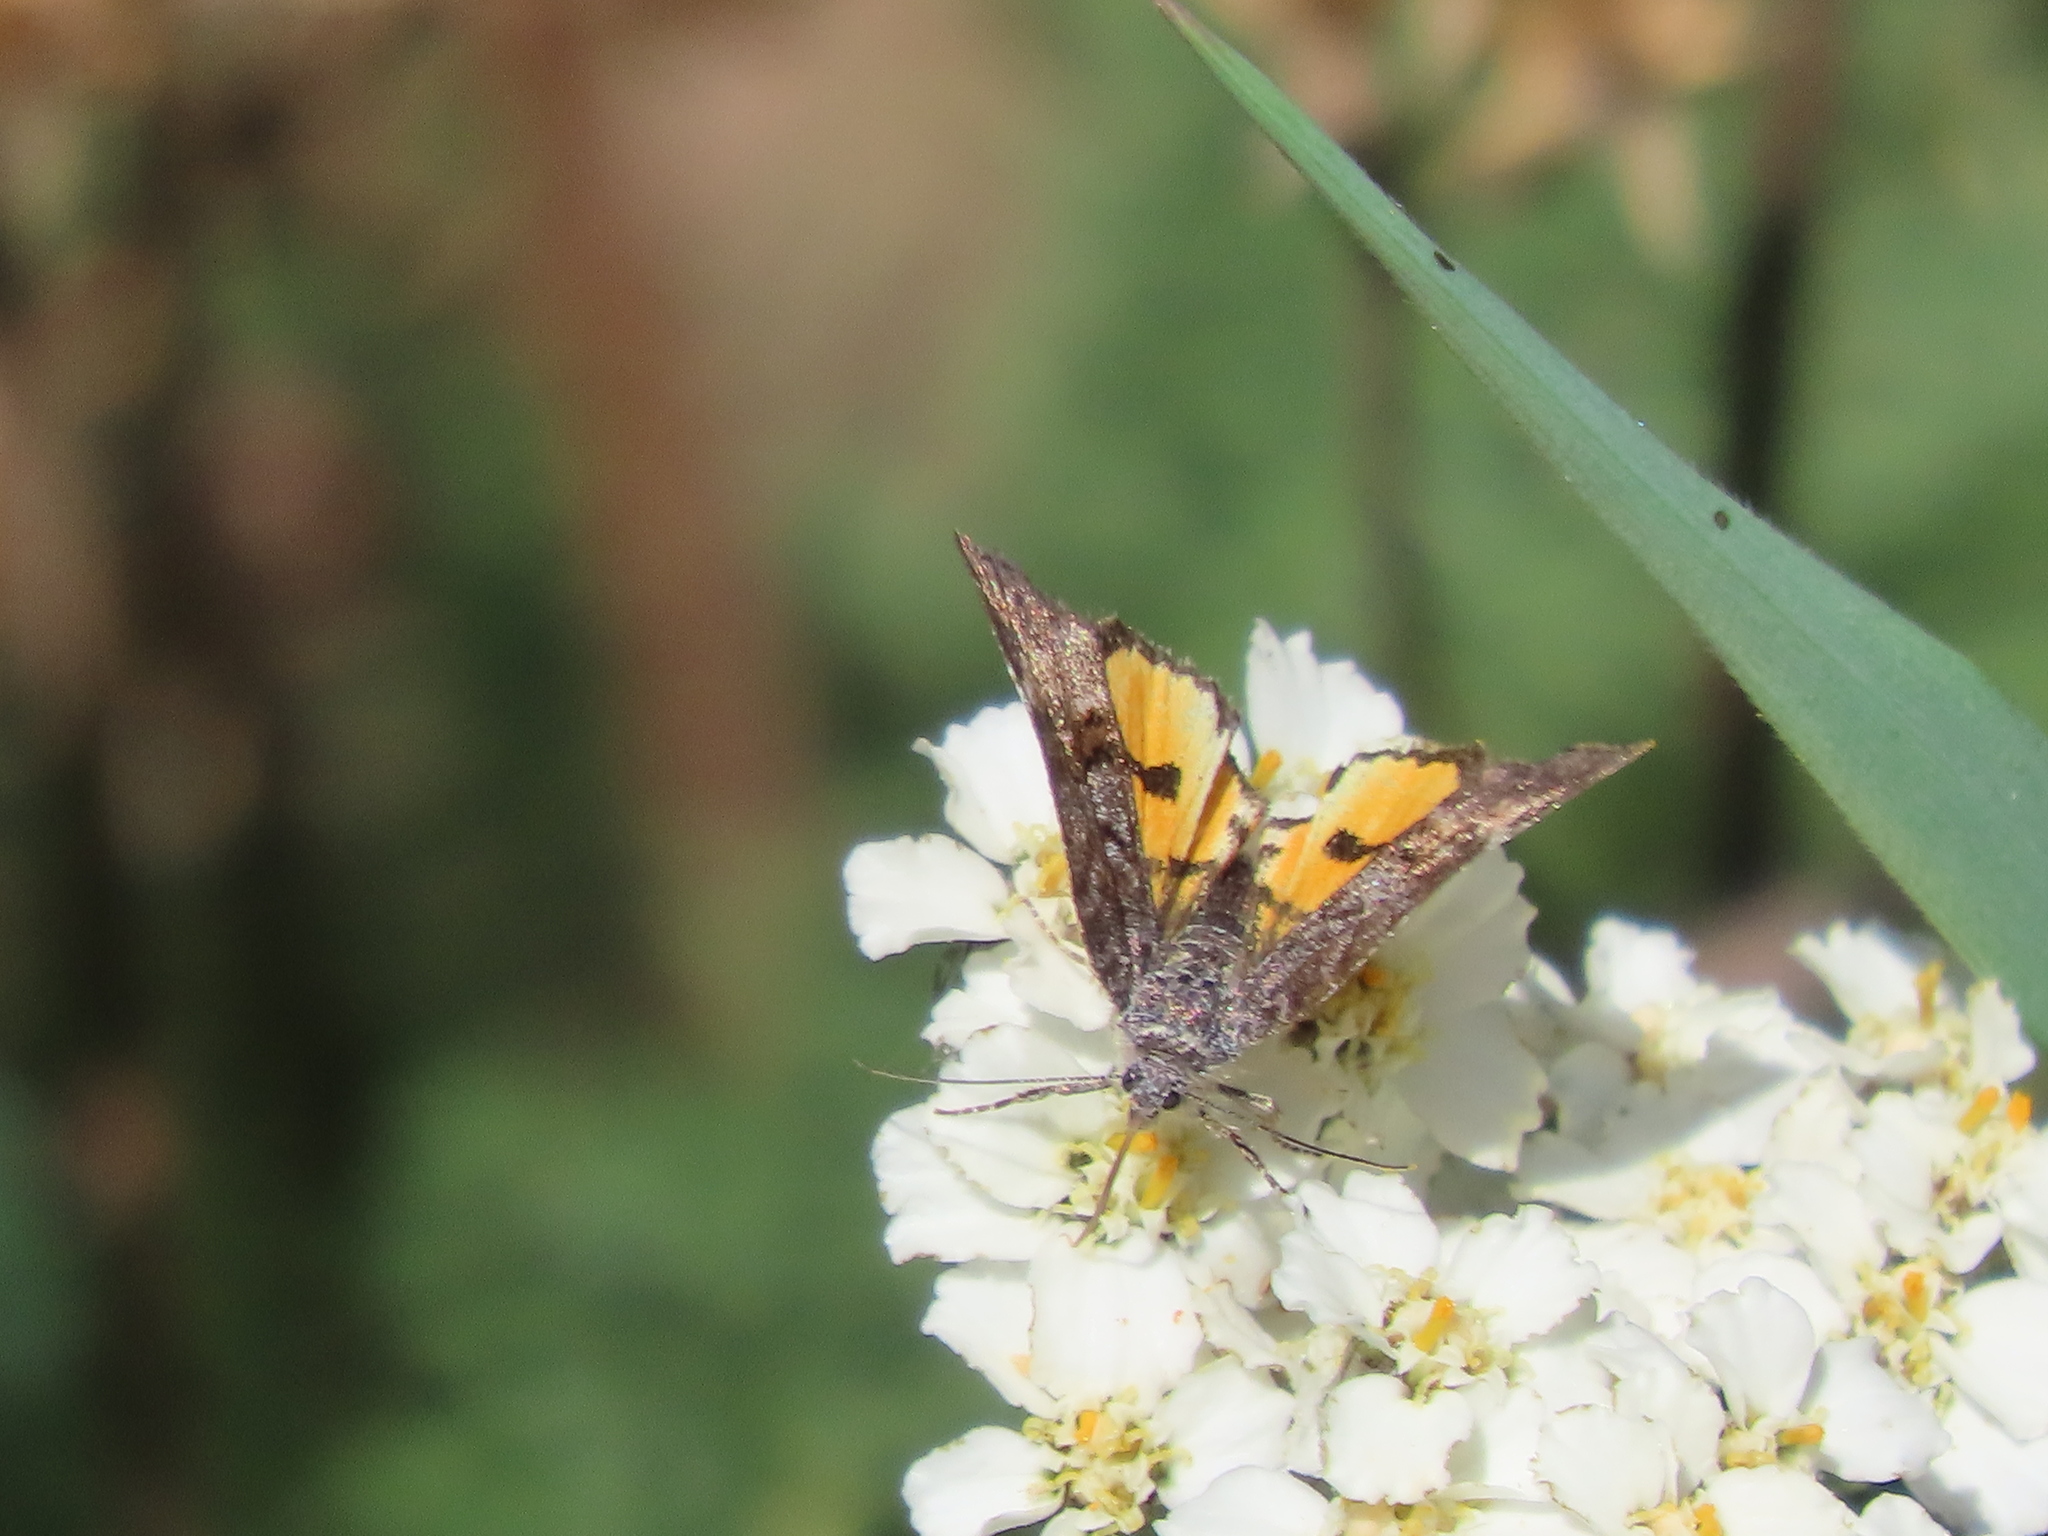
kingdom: Animalia
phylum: Arthropoda
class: Insecta
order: Lepidoptera
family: Noctuidae
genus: Annaphila
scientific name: Annaphila depicta
